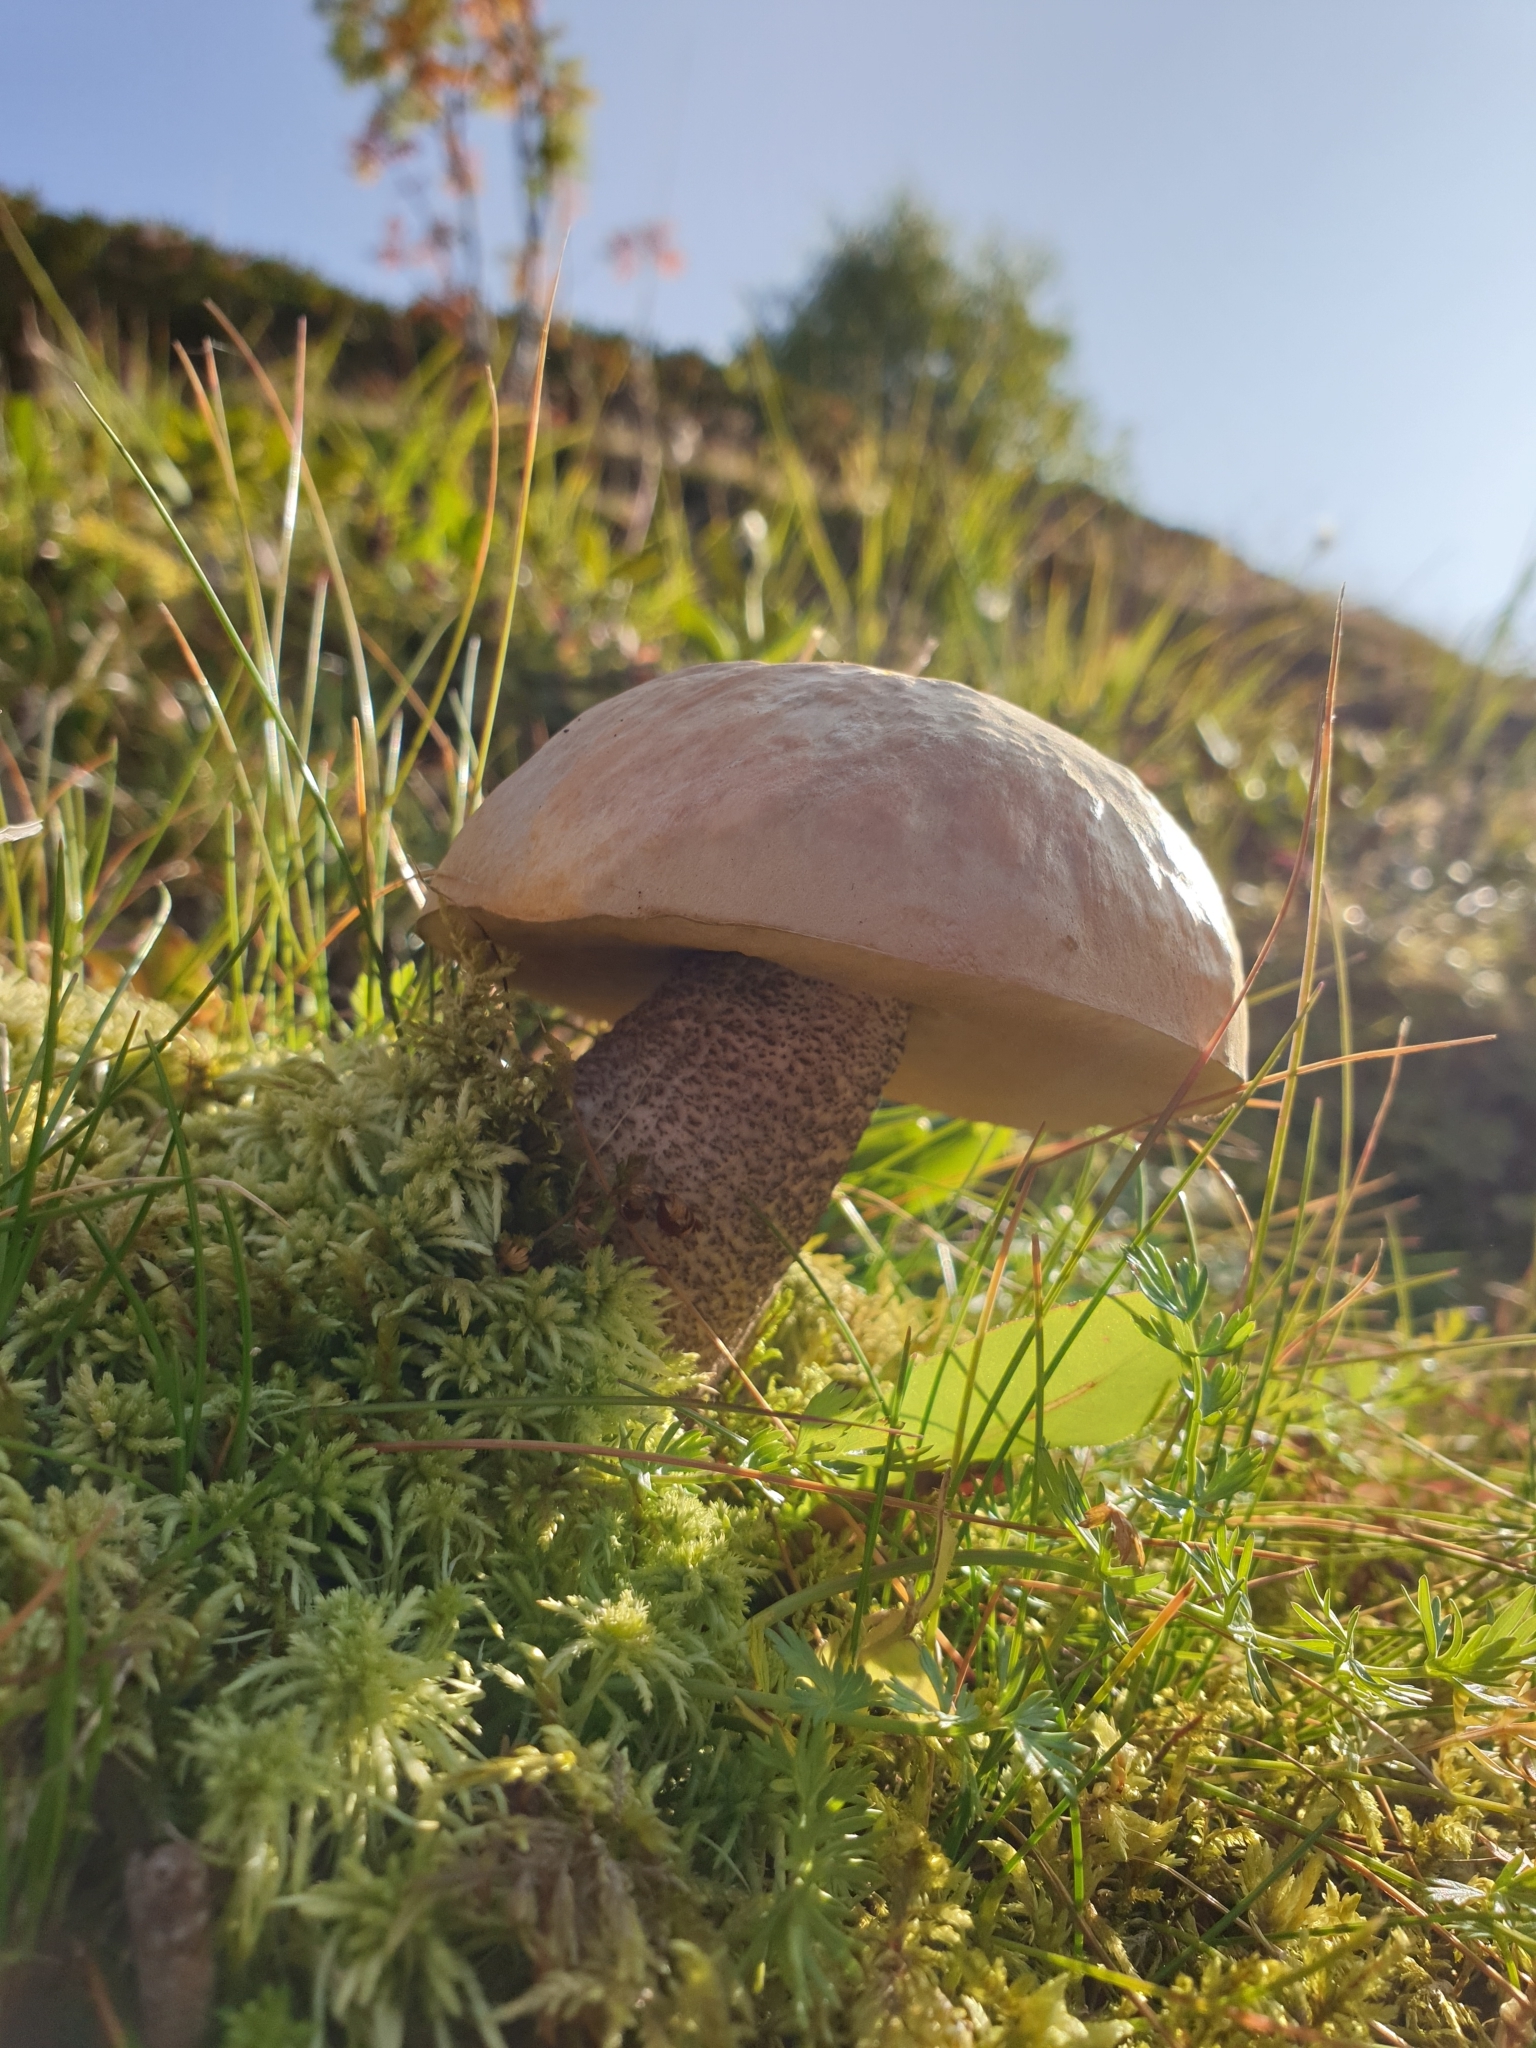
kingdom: Fungi
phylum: Basidiomycota
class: Agaricomycetes
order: Boletales
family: Boletaceae
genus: Leccinum
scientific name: Leccinum scabrum
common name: Blushing bolete
